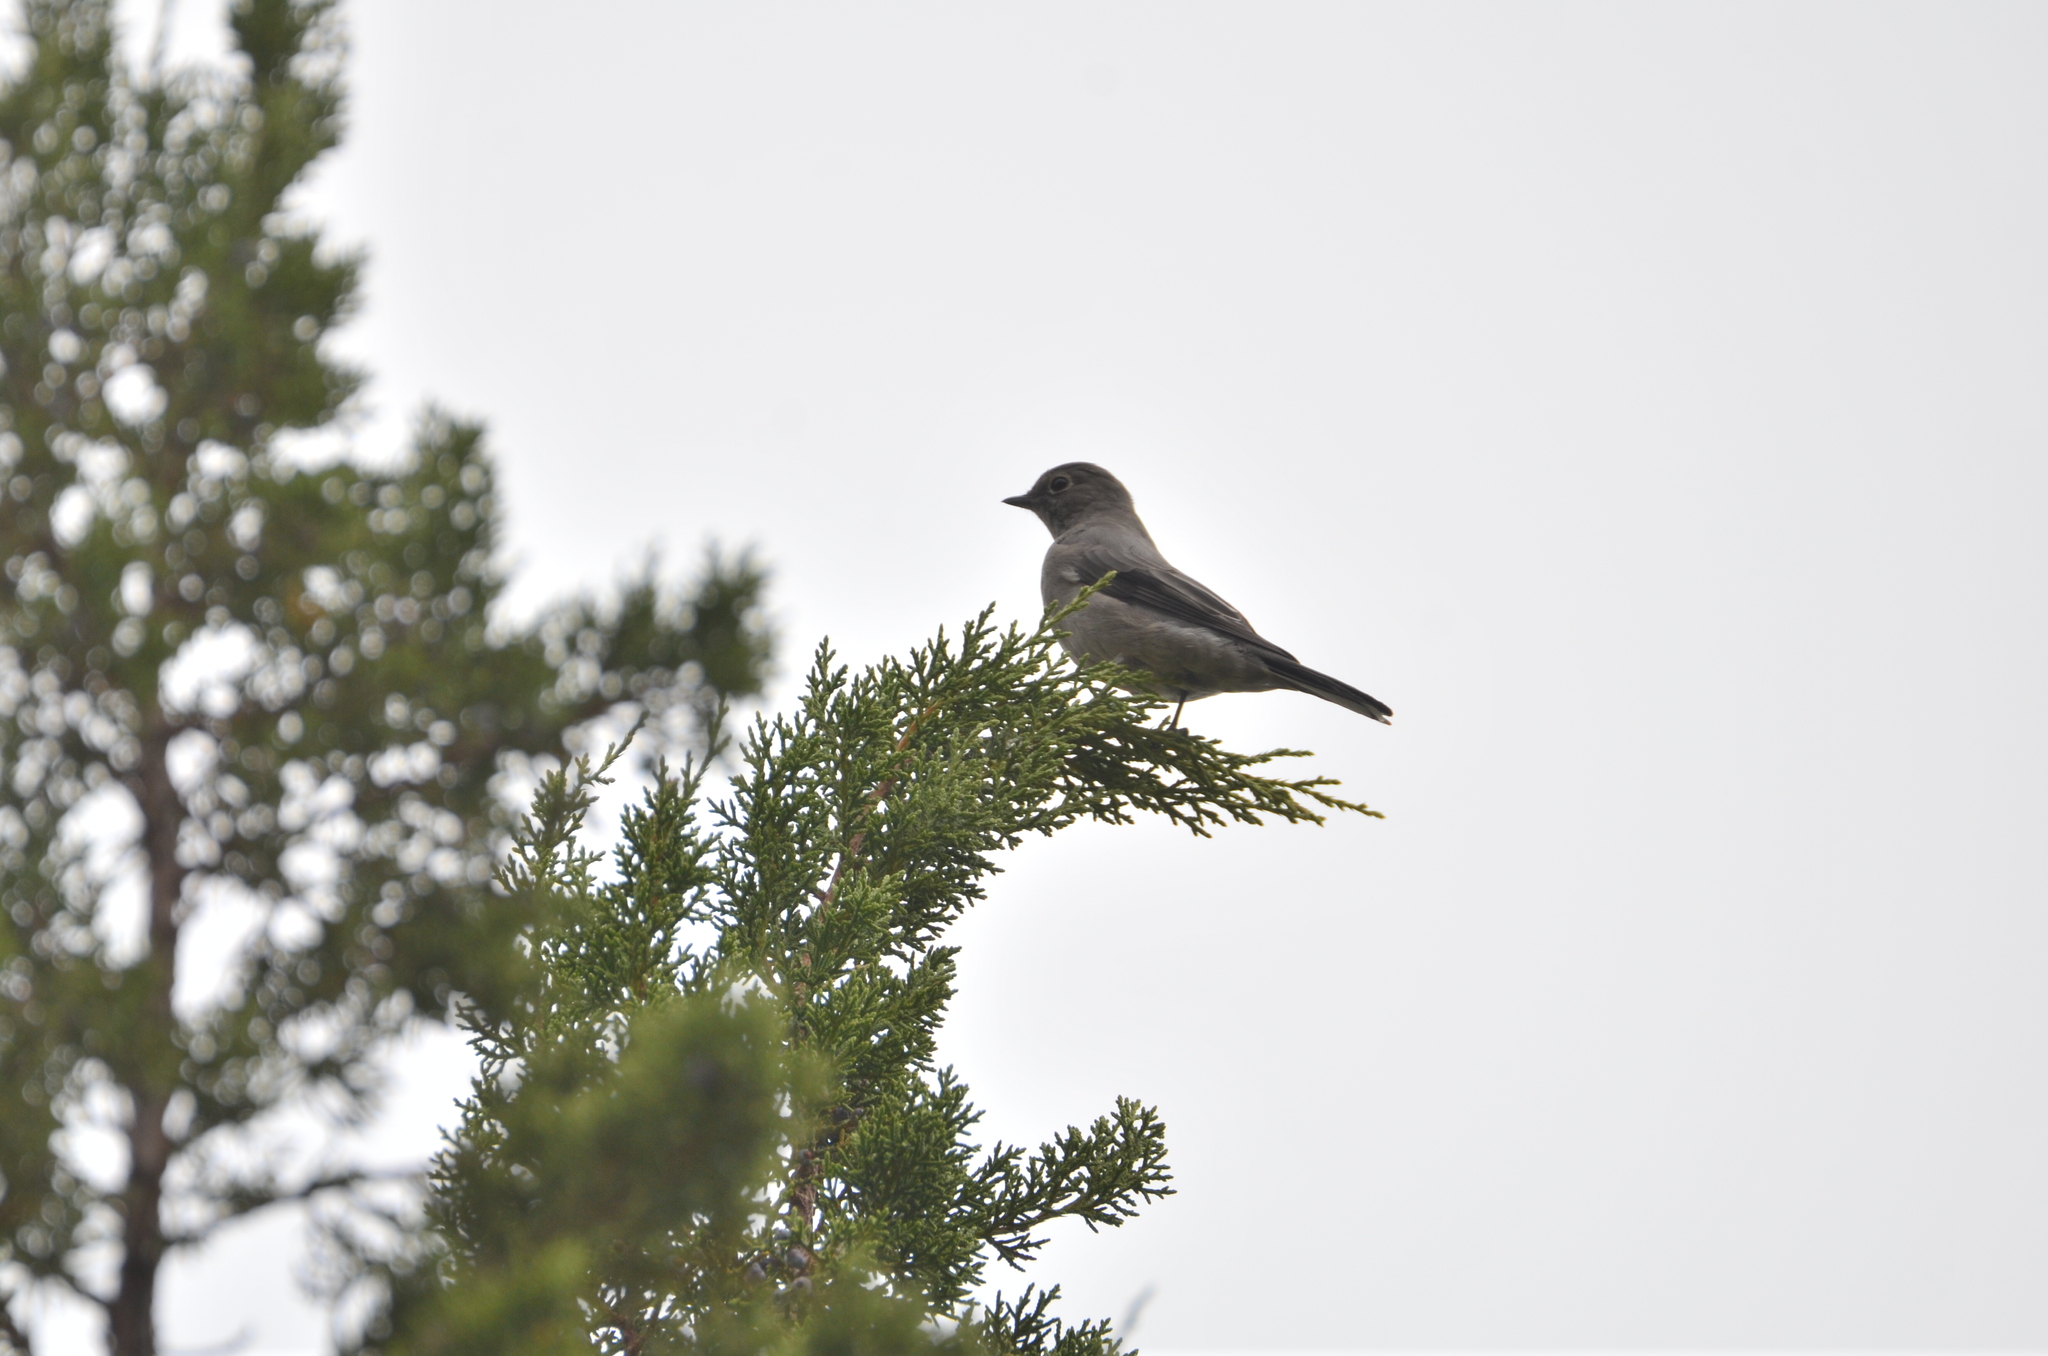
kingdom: Animalia
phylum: Chordata
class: Aves
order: Passeriformes
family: Turdidae
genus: Myadestes
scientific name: Myadestes townsendi
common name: Townsend's solitaire
